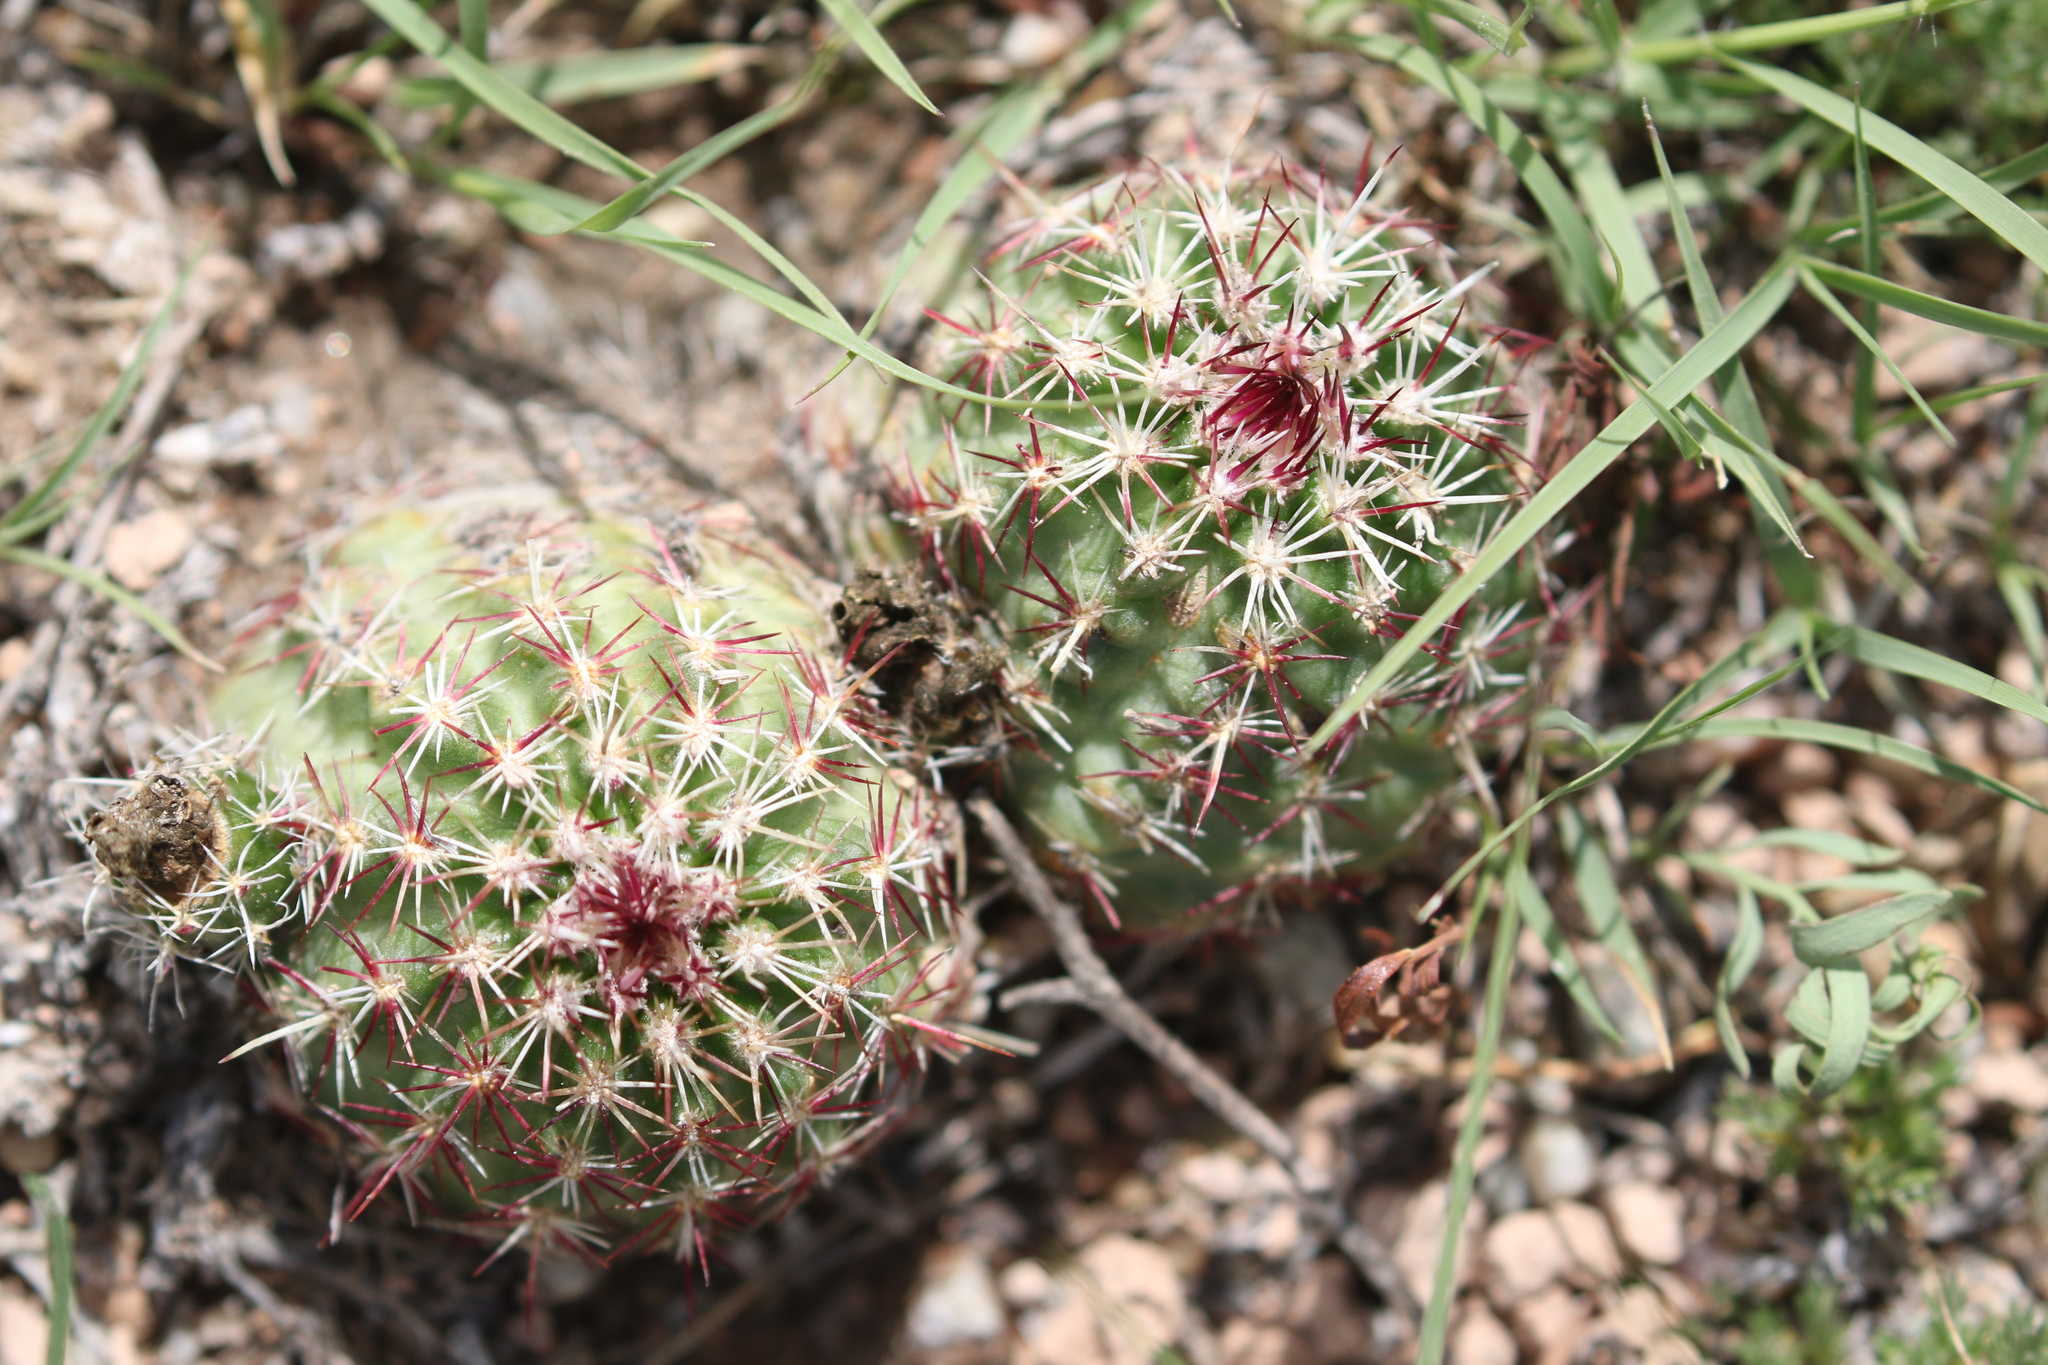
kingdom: Plantae
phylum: Tracheophyta
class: Magnoliopsida
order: Caryophyllales
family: Cactaceae
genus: Echinocereus
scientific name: Echinocereus viridiflorus
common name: Nylon hedgehog cactus
